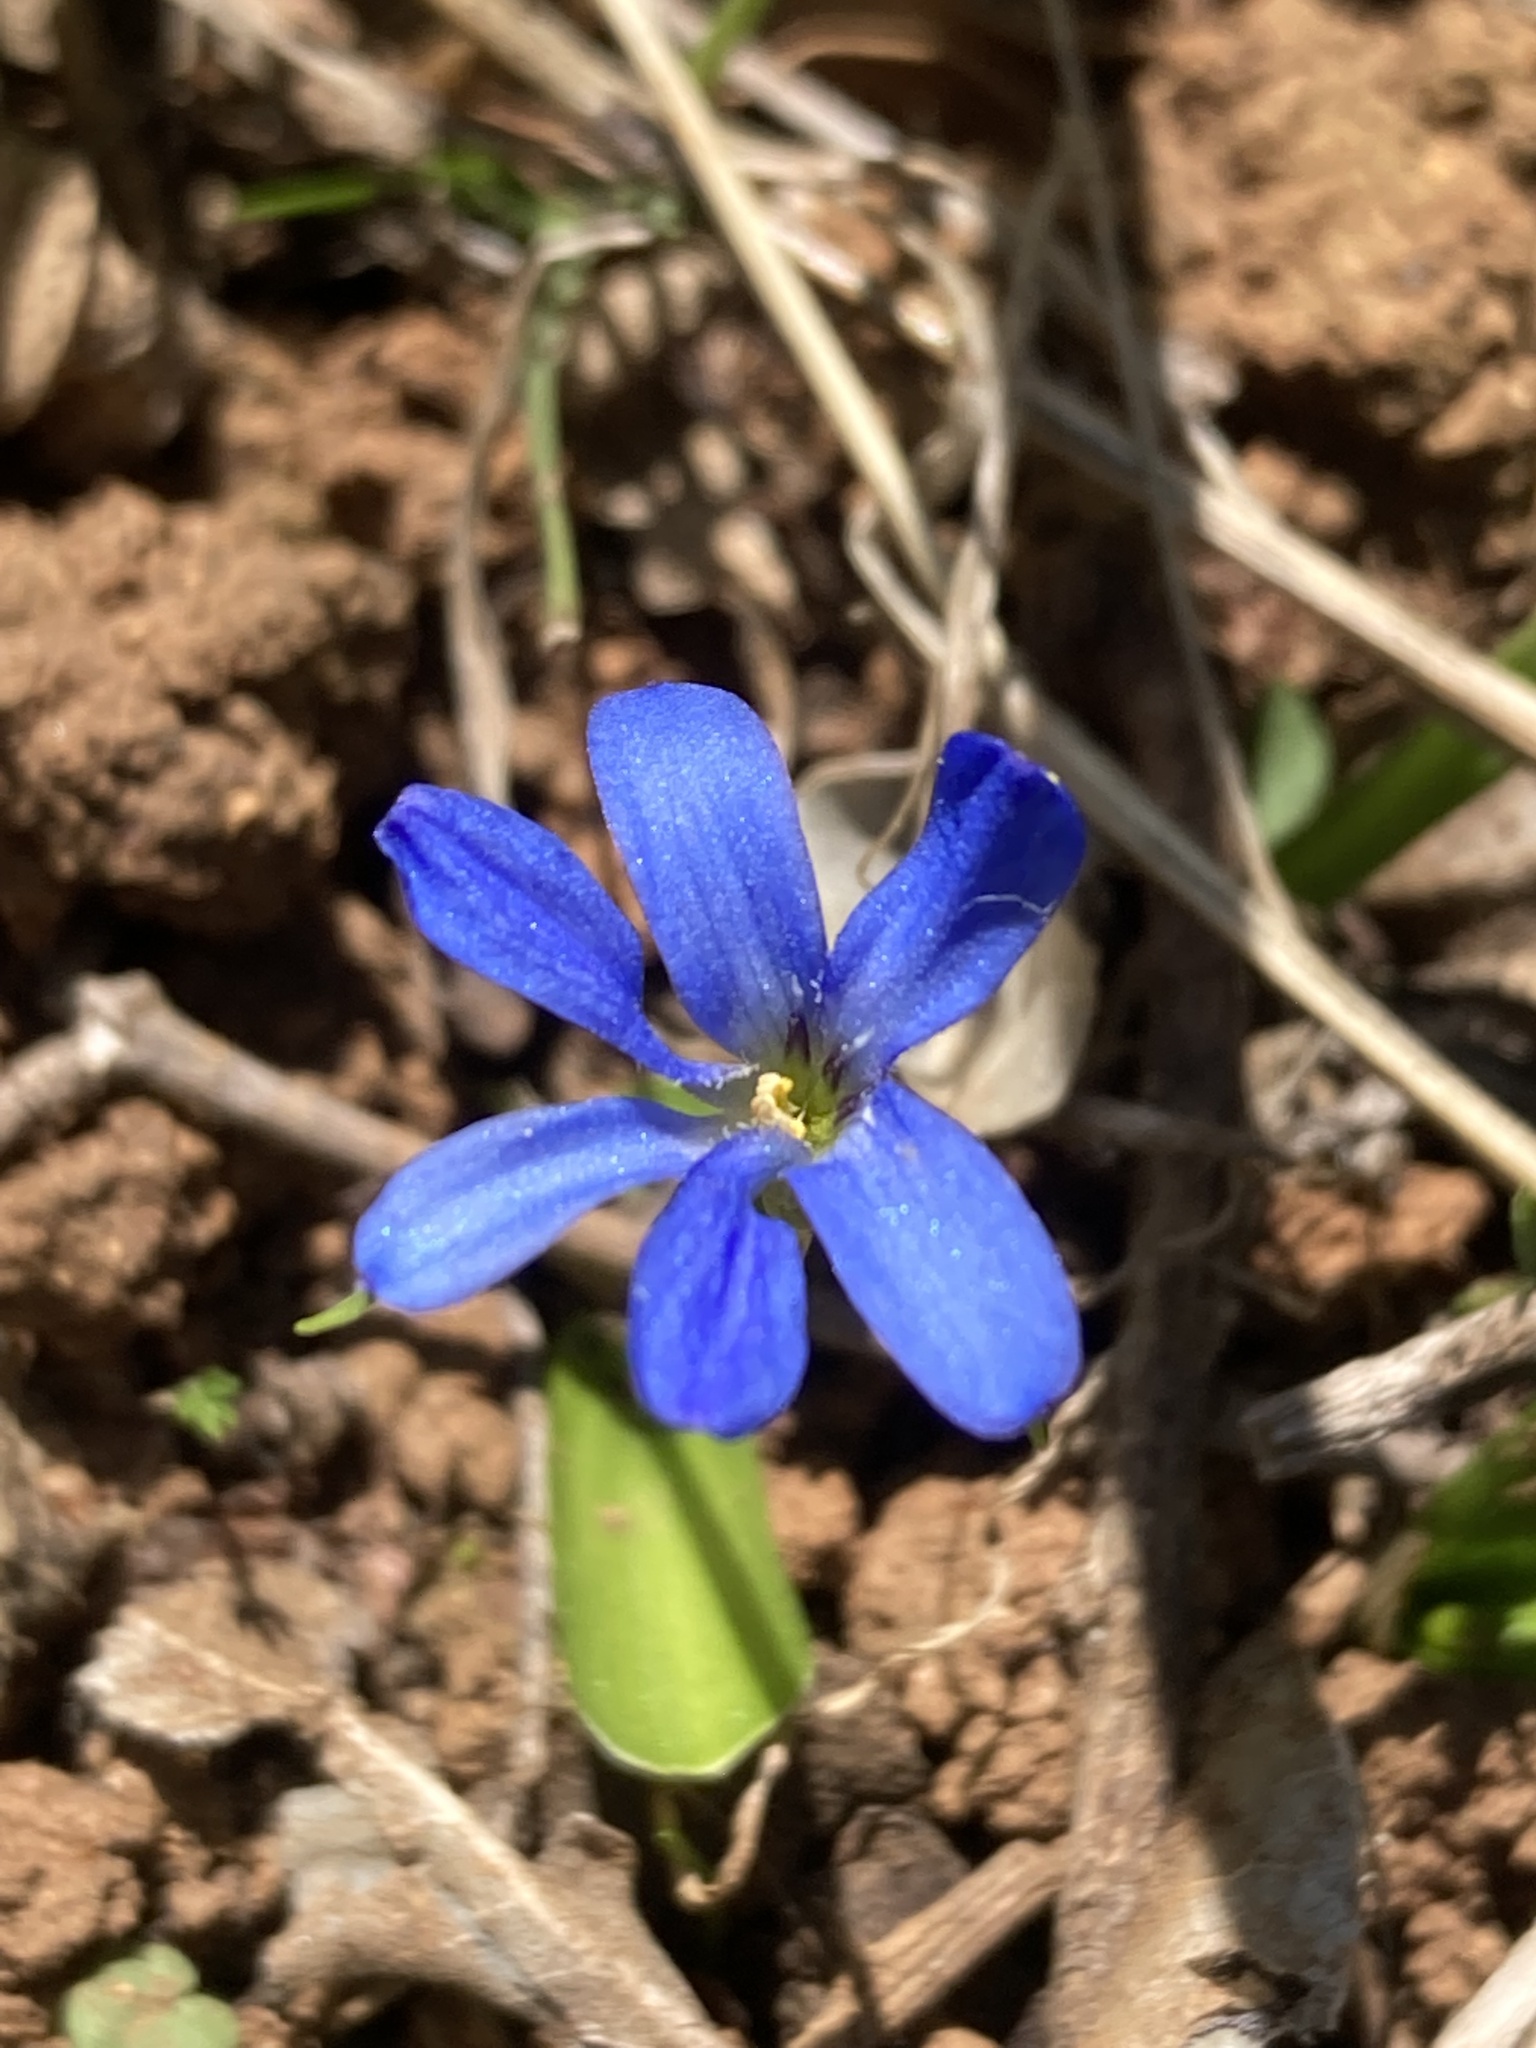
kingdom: Plantae
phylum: Tracheophyta
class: Liliopsida
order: Asparagales
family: Tecophilaeaceae
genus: Tecophilaea
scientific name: Tecophilaea violiflora
